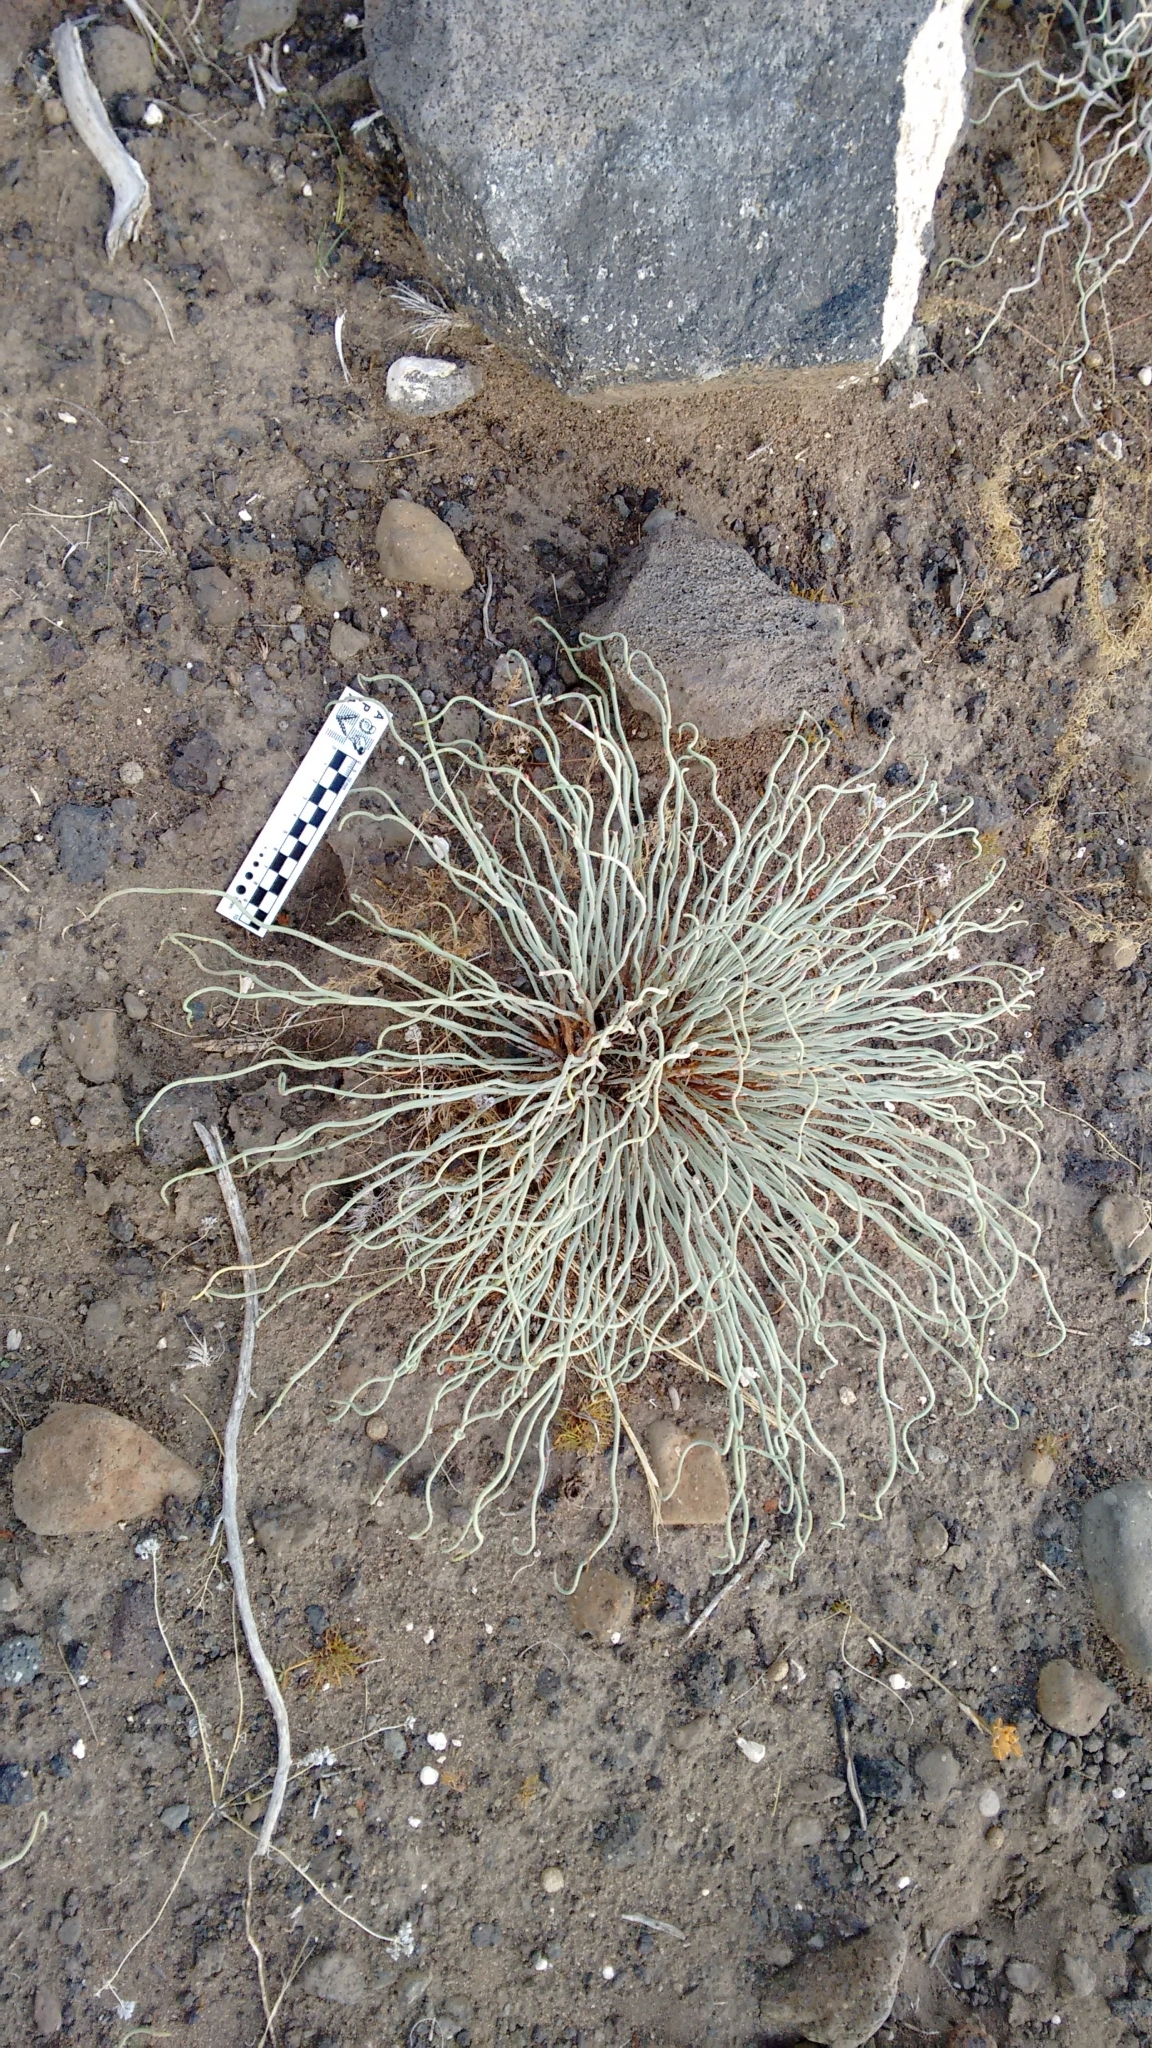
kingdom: Plantae
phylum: Tracheophyta
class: Magnoliopsida
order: Malpighiales
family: Euphorbiaceae
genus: Spegazziniophytum
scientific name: Spegazziniophytum patagonicum
